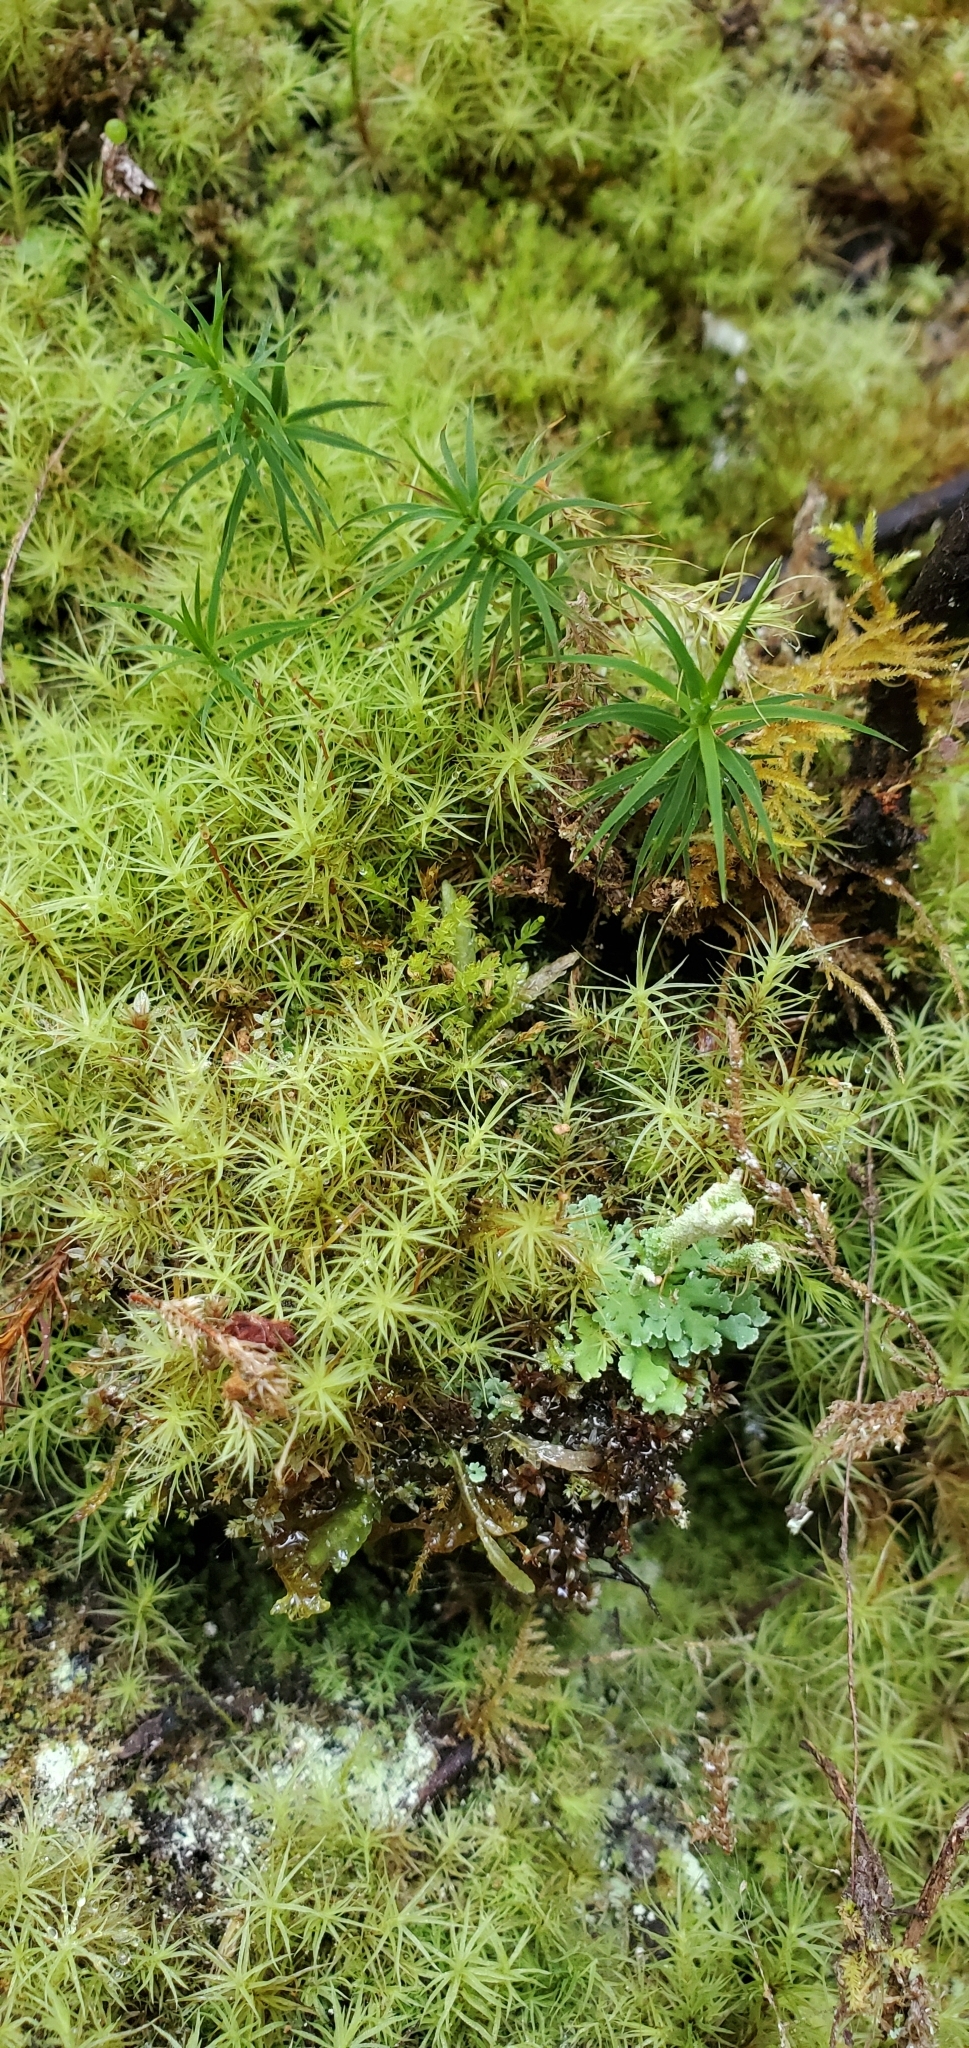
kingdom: Plantae
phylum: Bryophyta
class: Polytrichopsida
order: Polytrichales
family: Polytrichaceae
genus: Polytrichastrum
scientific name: Polytrichastrum alpinum
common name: Alpine haircap
